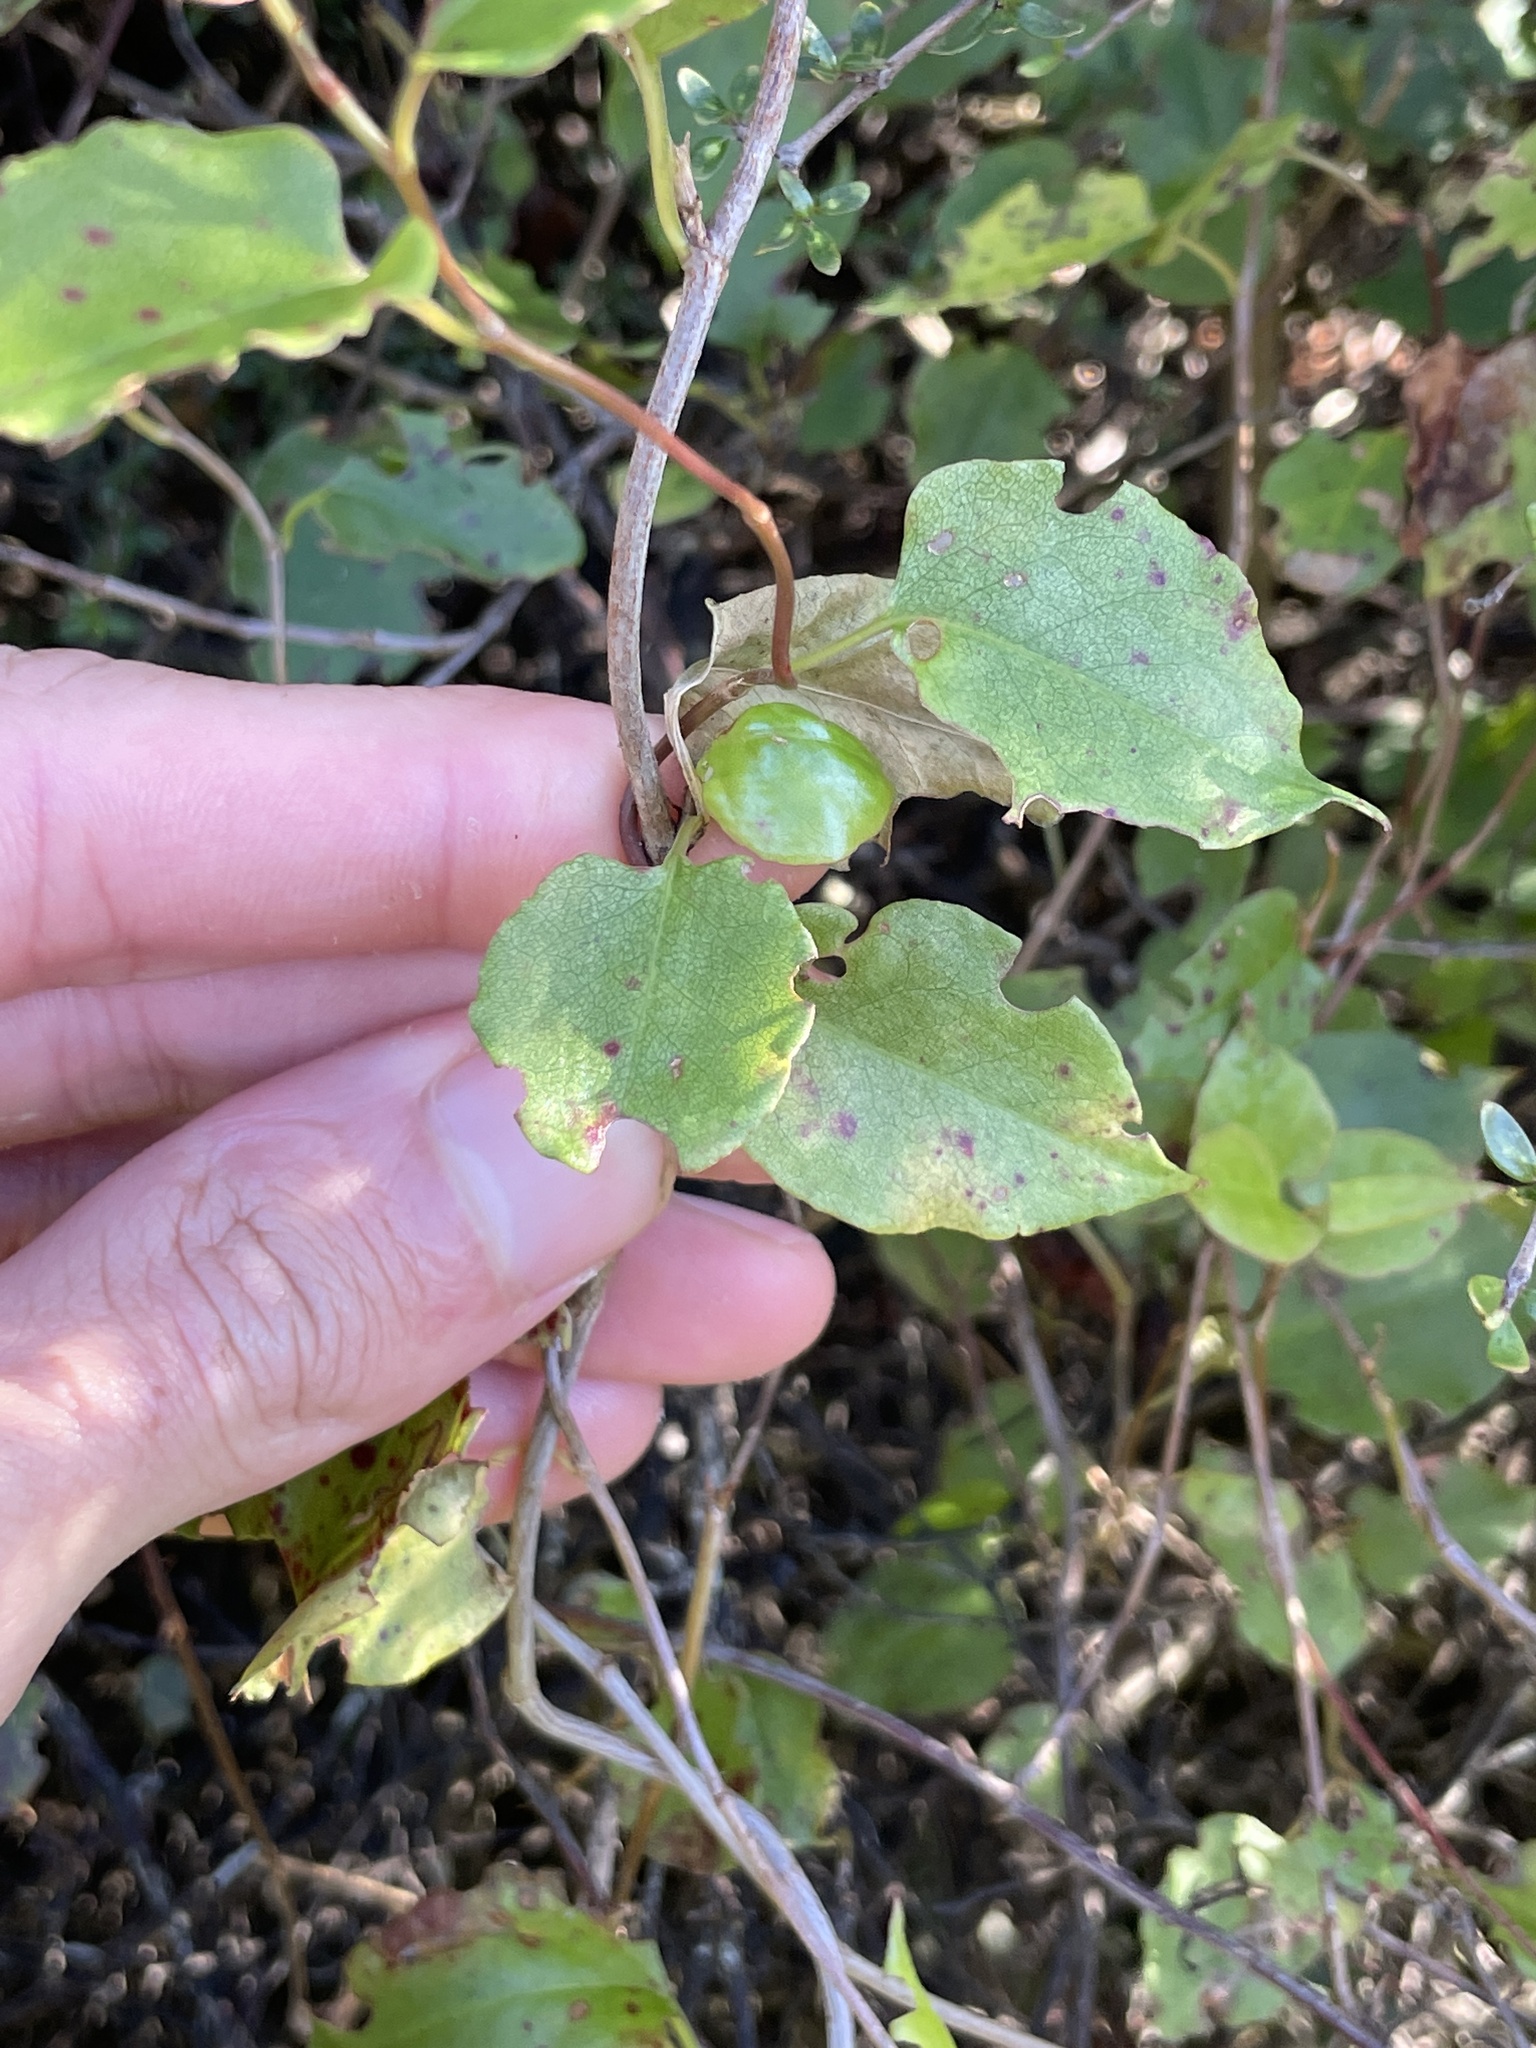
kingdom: Plantae
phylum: Tracheophyta
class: Magnoliopsida
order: Caryophyllales
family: Polygonaceae
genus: Muehlenbeckia
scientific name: Muehlenbeckia australis
